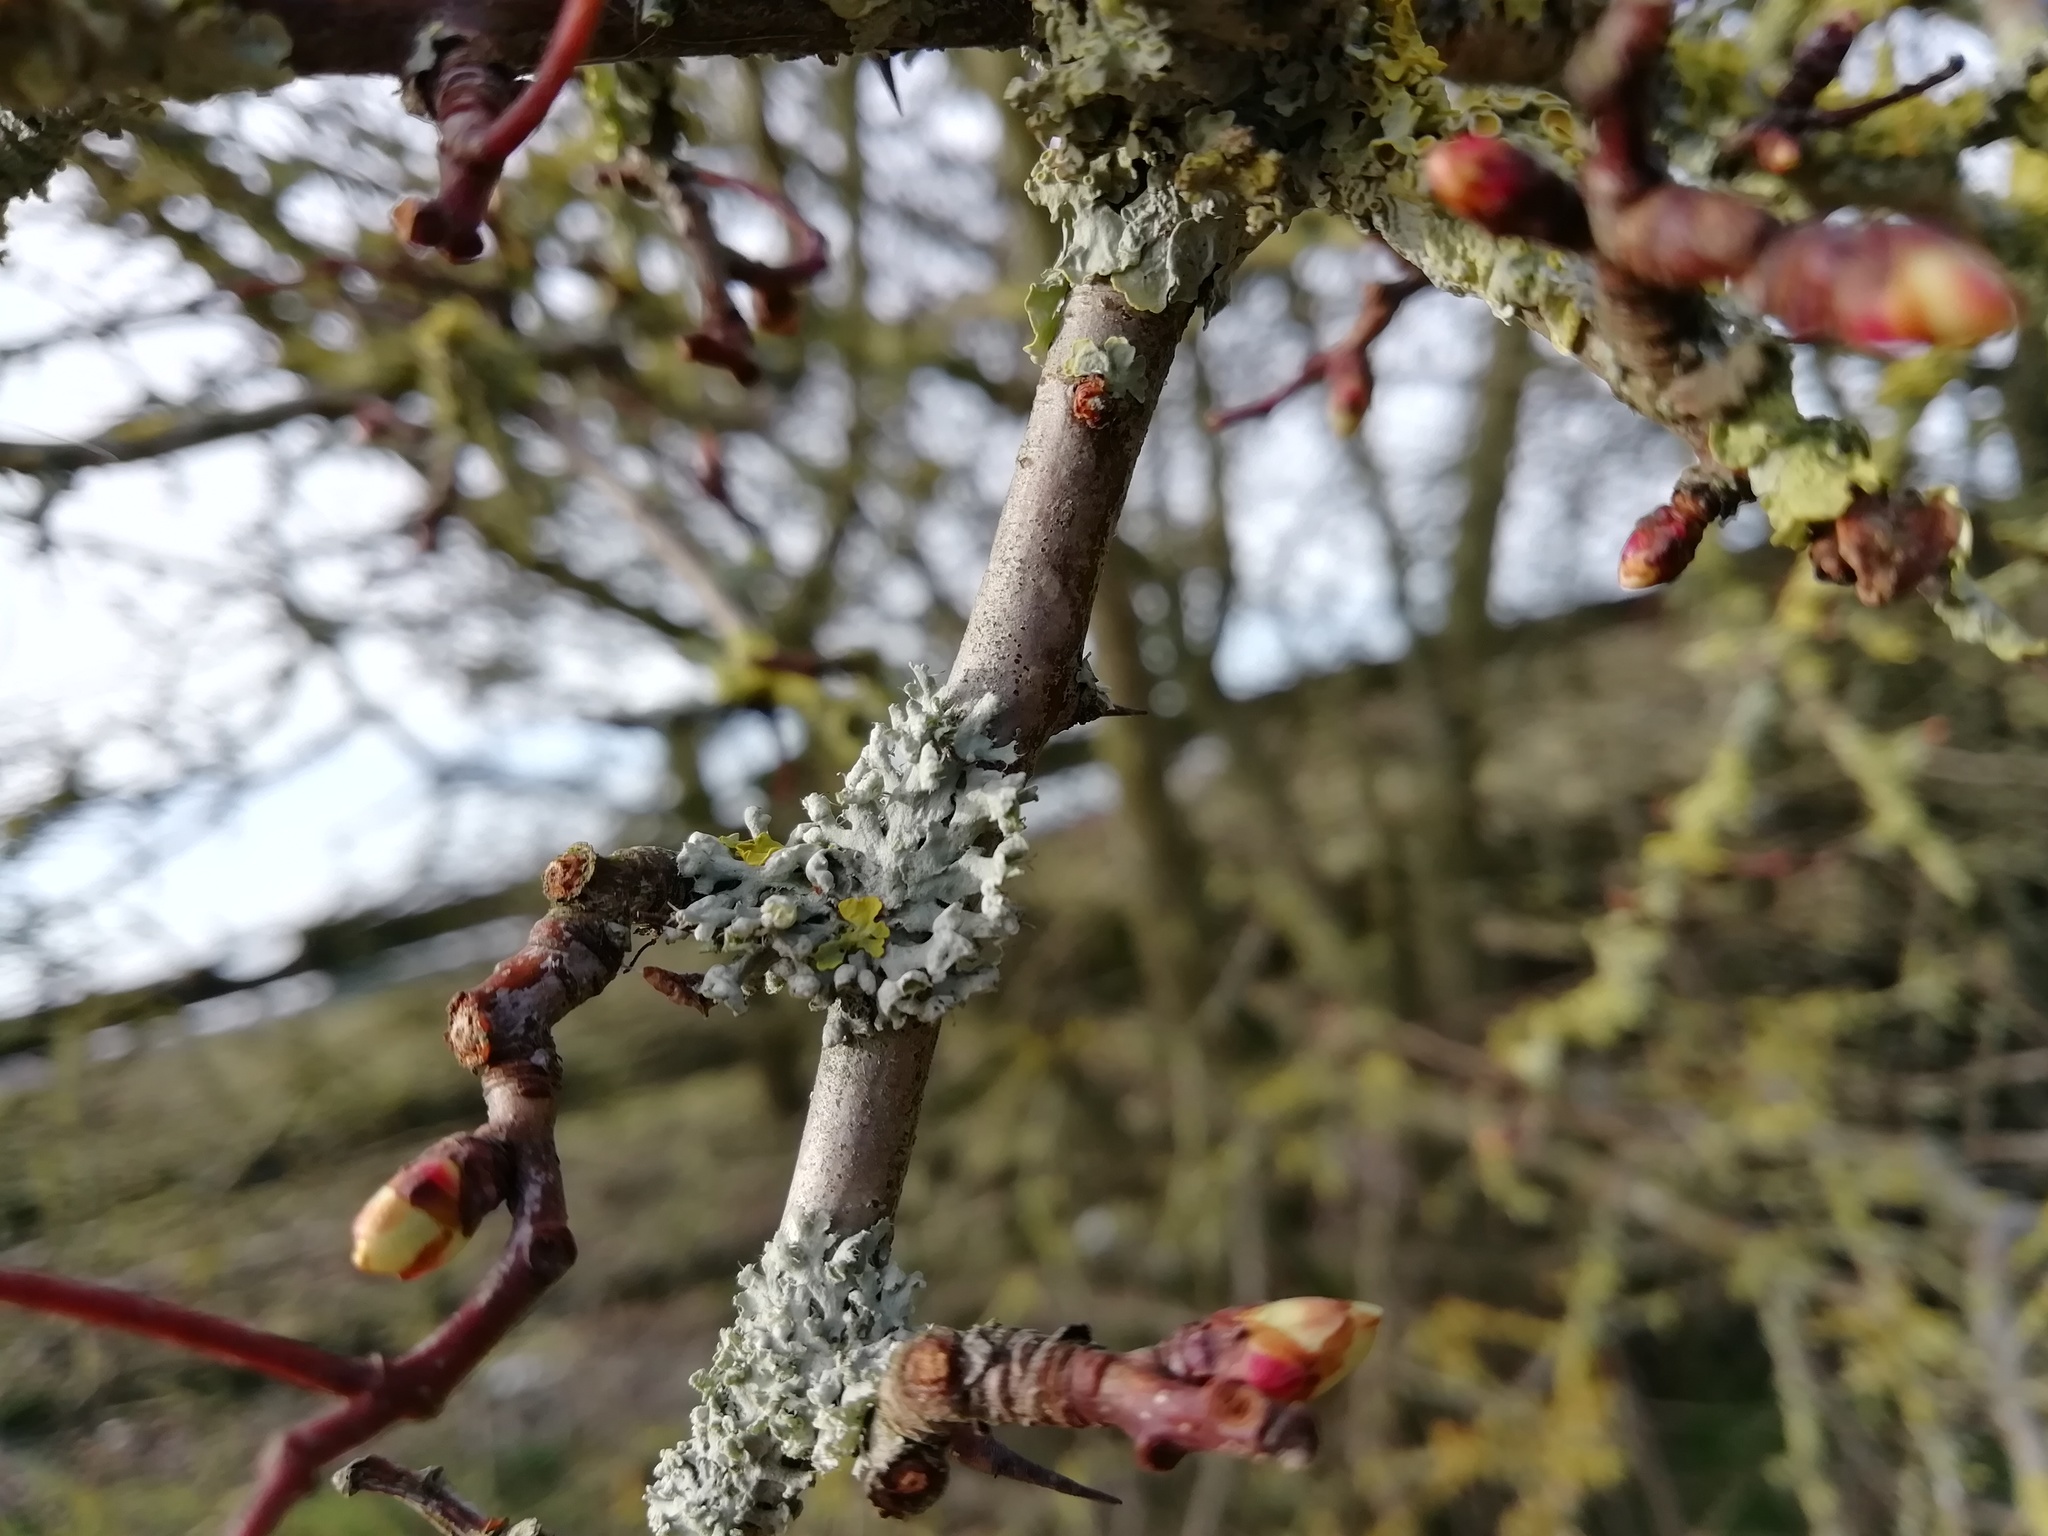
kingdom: Fungi
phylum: Ascomycota
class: Lecanoromycetes
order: Caliciales
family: Physciaceae
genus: Physcia
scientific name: Physcia adscendens
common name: Hooded rosette lichen
